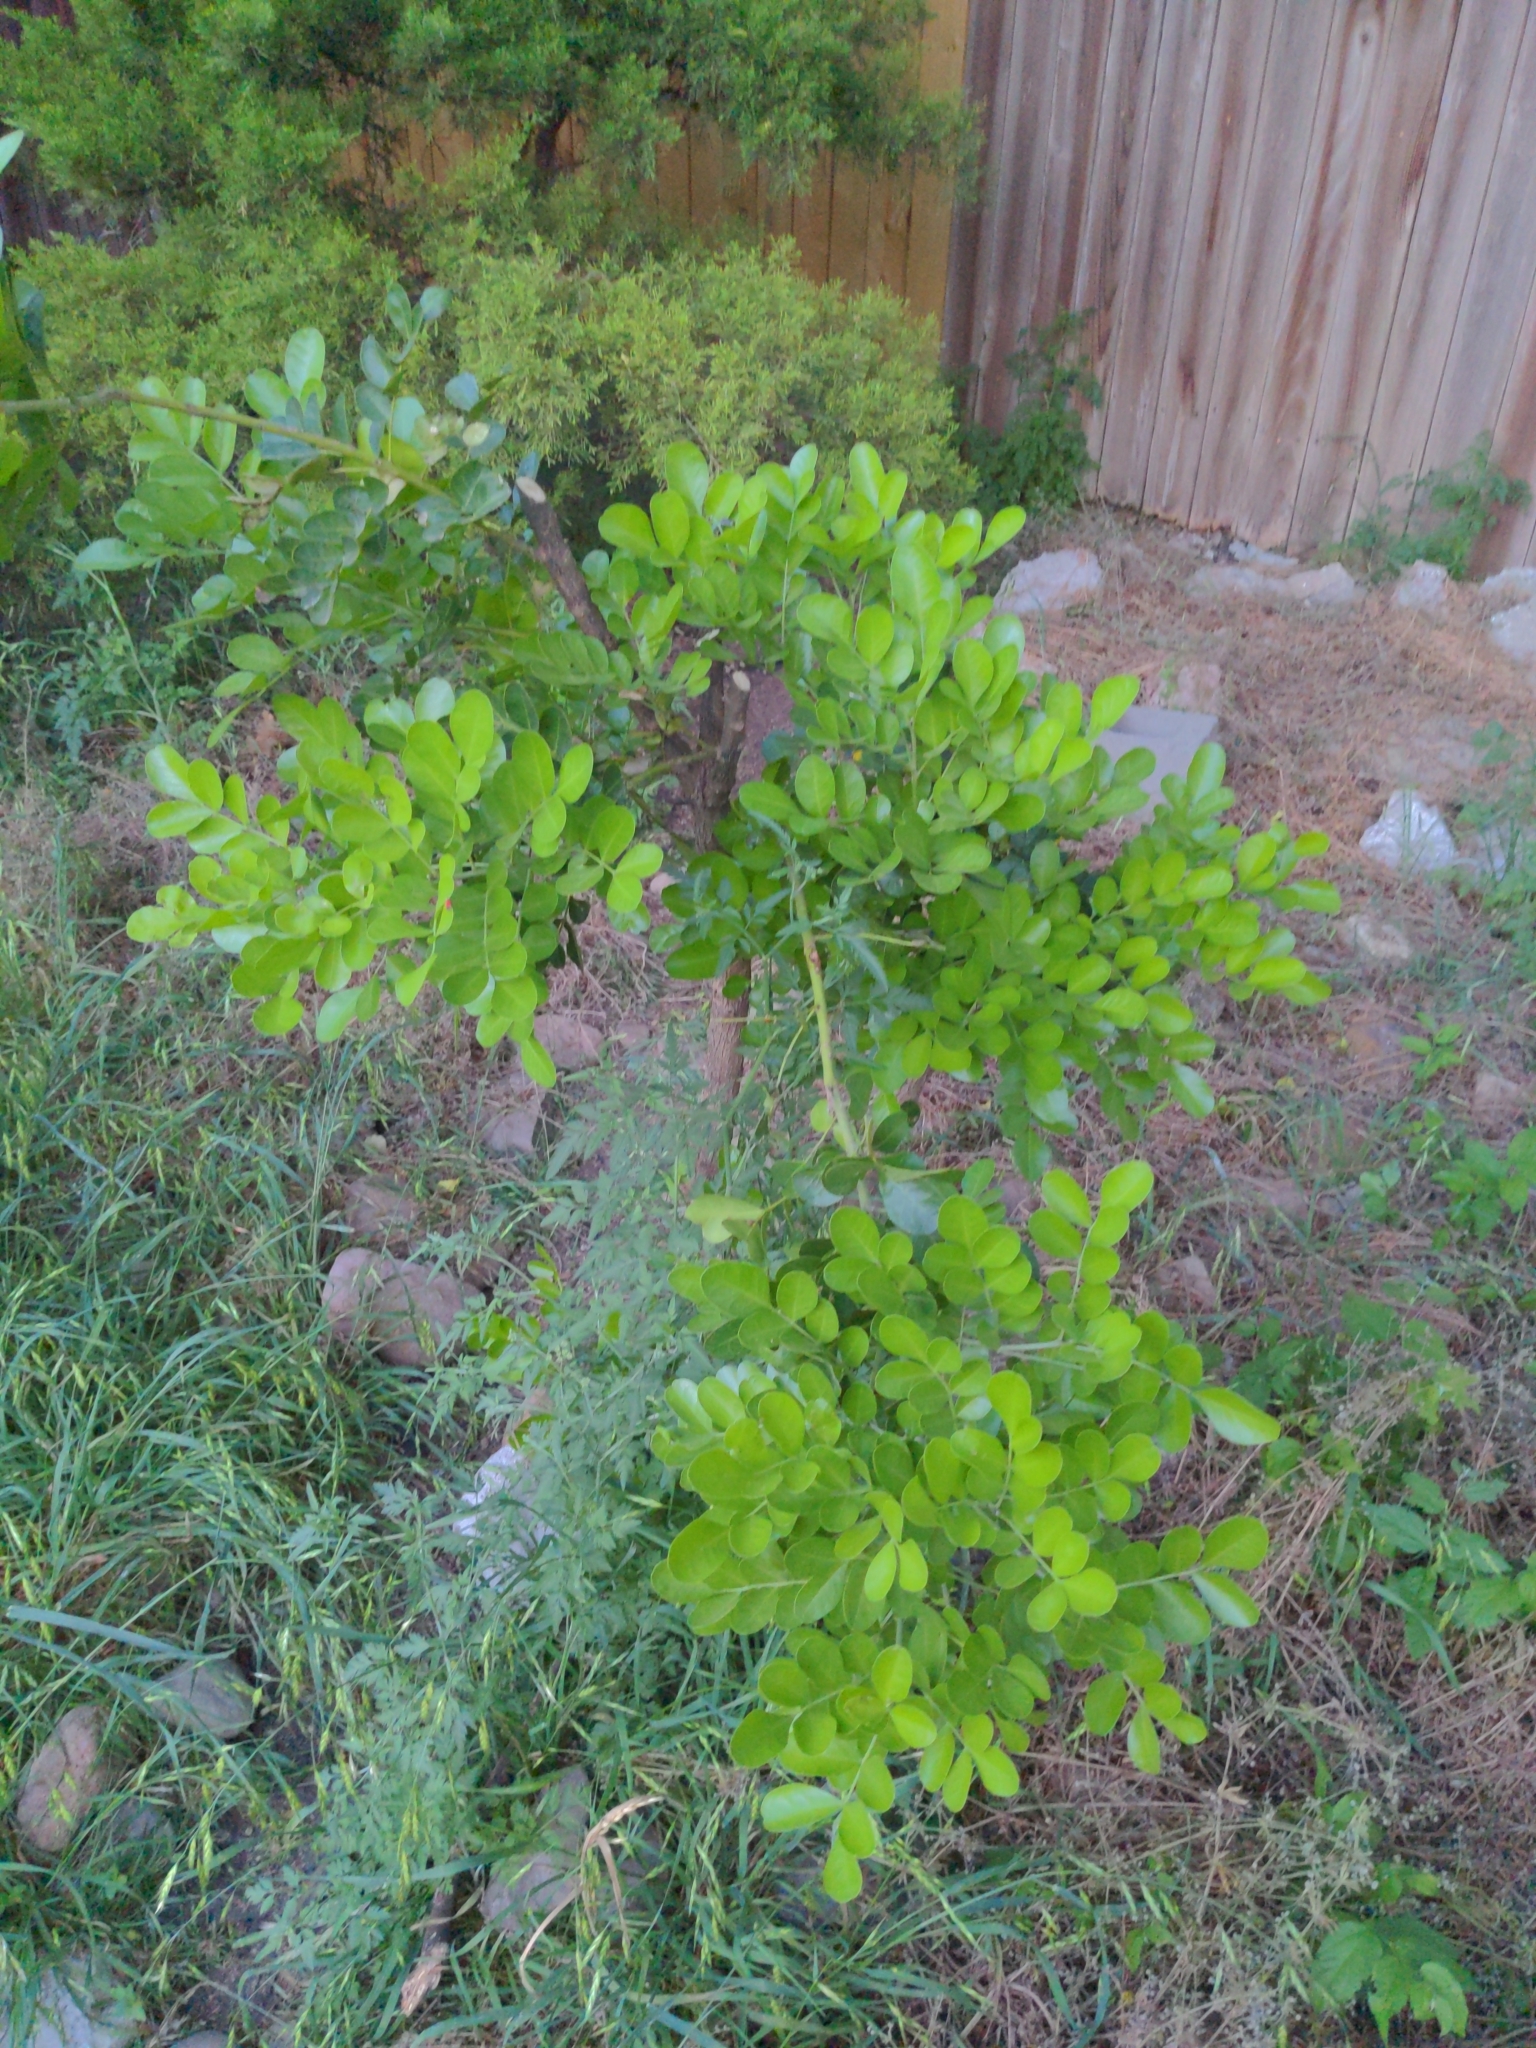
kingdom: Plantae
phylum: Tracheophyta
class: Magnoliopsida
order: Fabales
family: Fabaceae
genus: Dermatophyllum
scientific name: Dermatophyllum secundiflorum
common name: Texas-mountain-laurel
